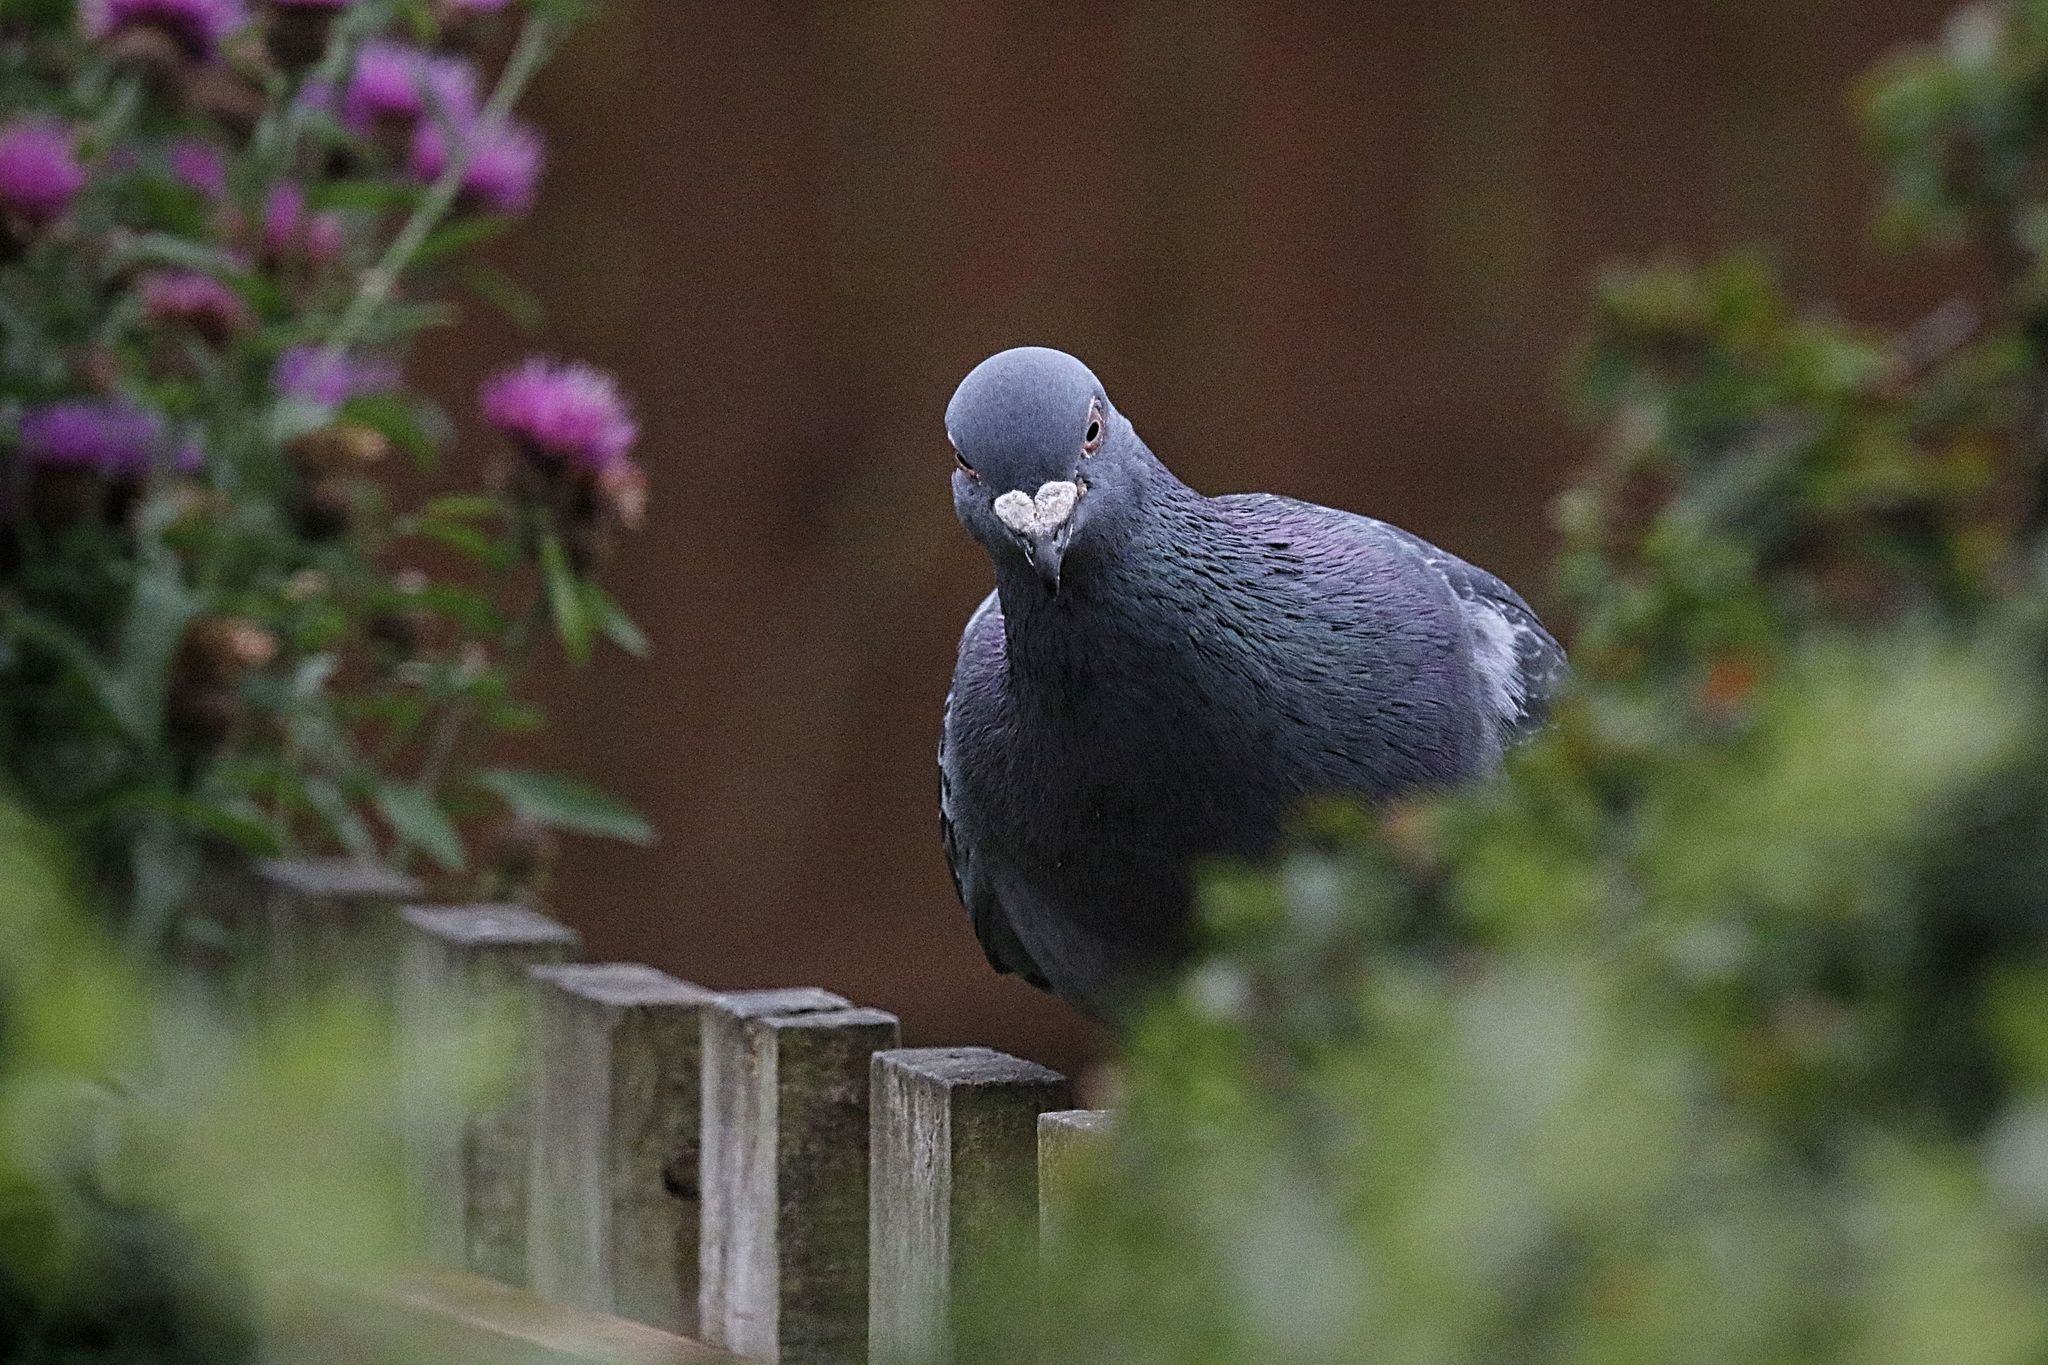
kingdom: Animalia
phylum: Chordata
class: Aves
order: Columbiformes
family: Columbidae
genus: Columba
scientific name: Columba livia
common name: Rock pigeon
